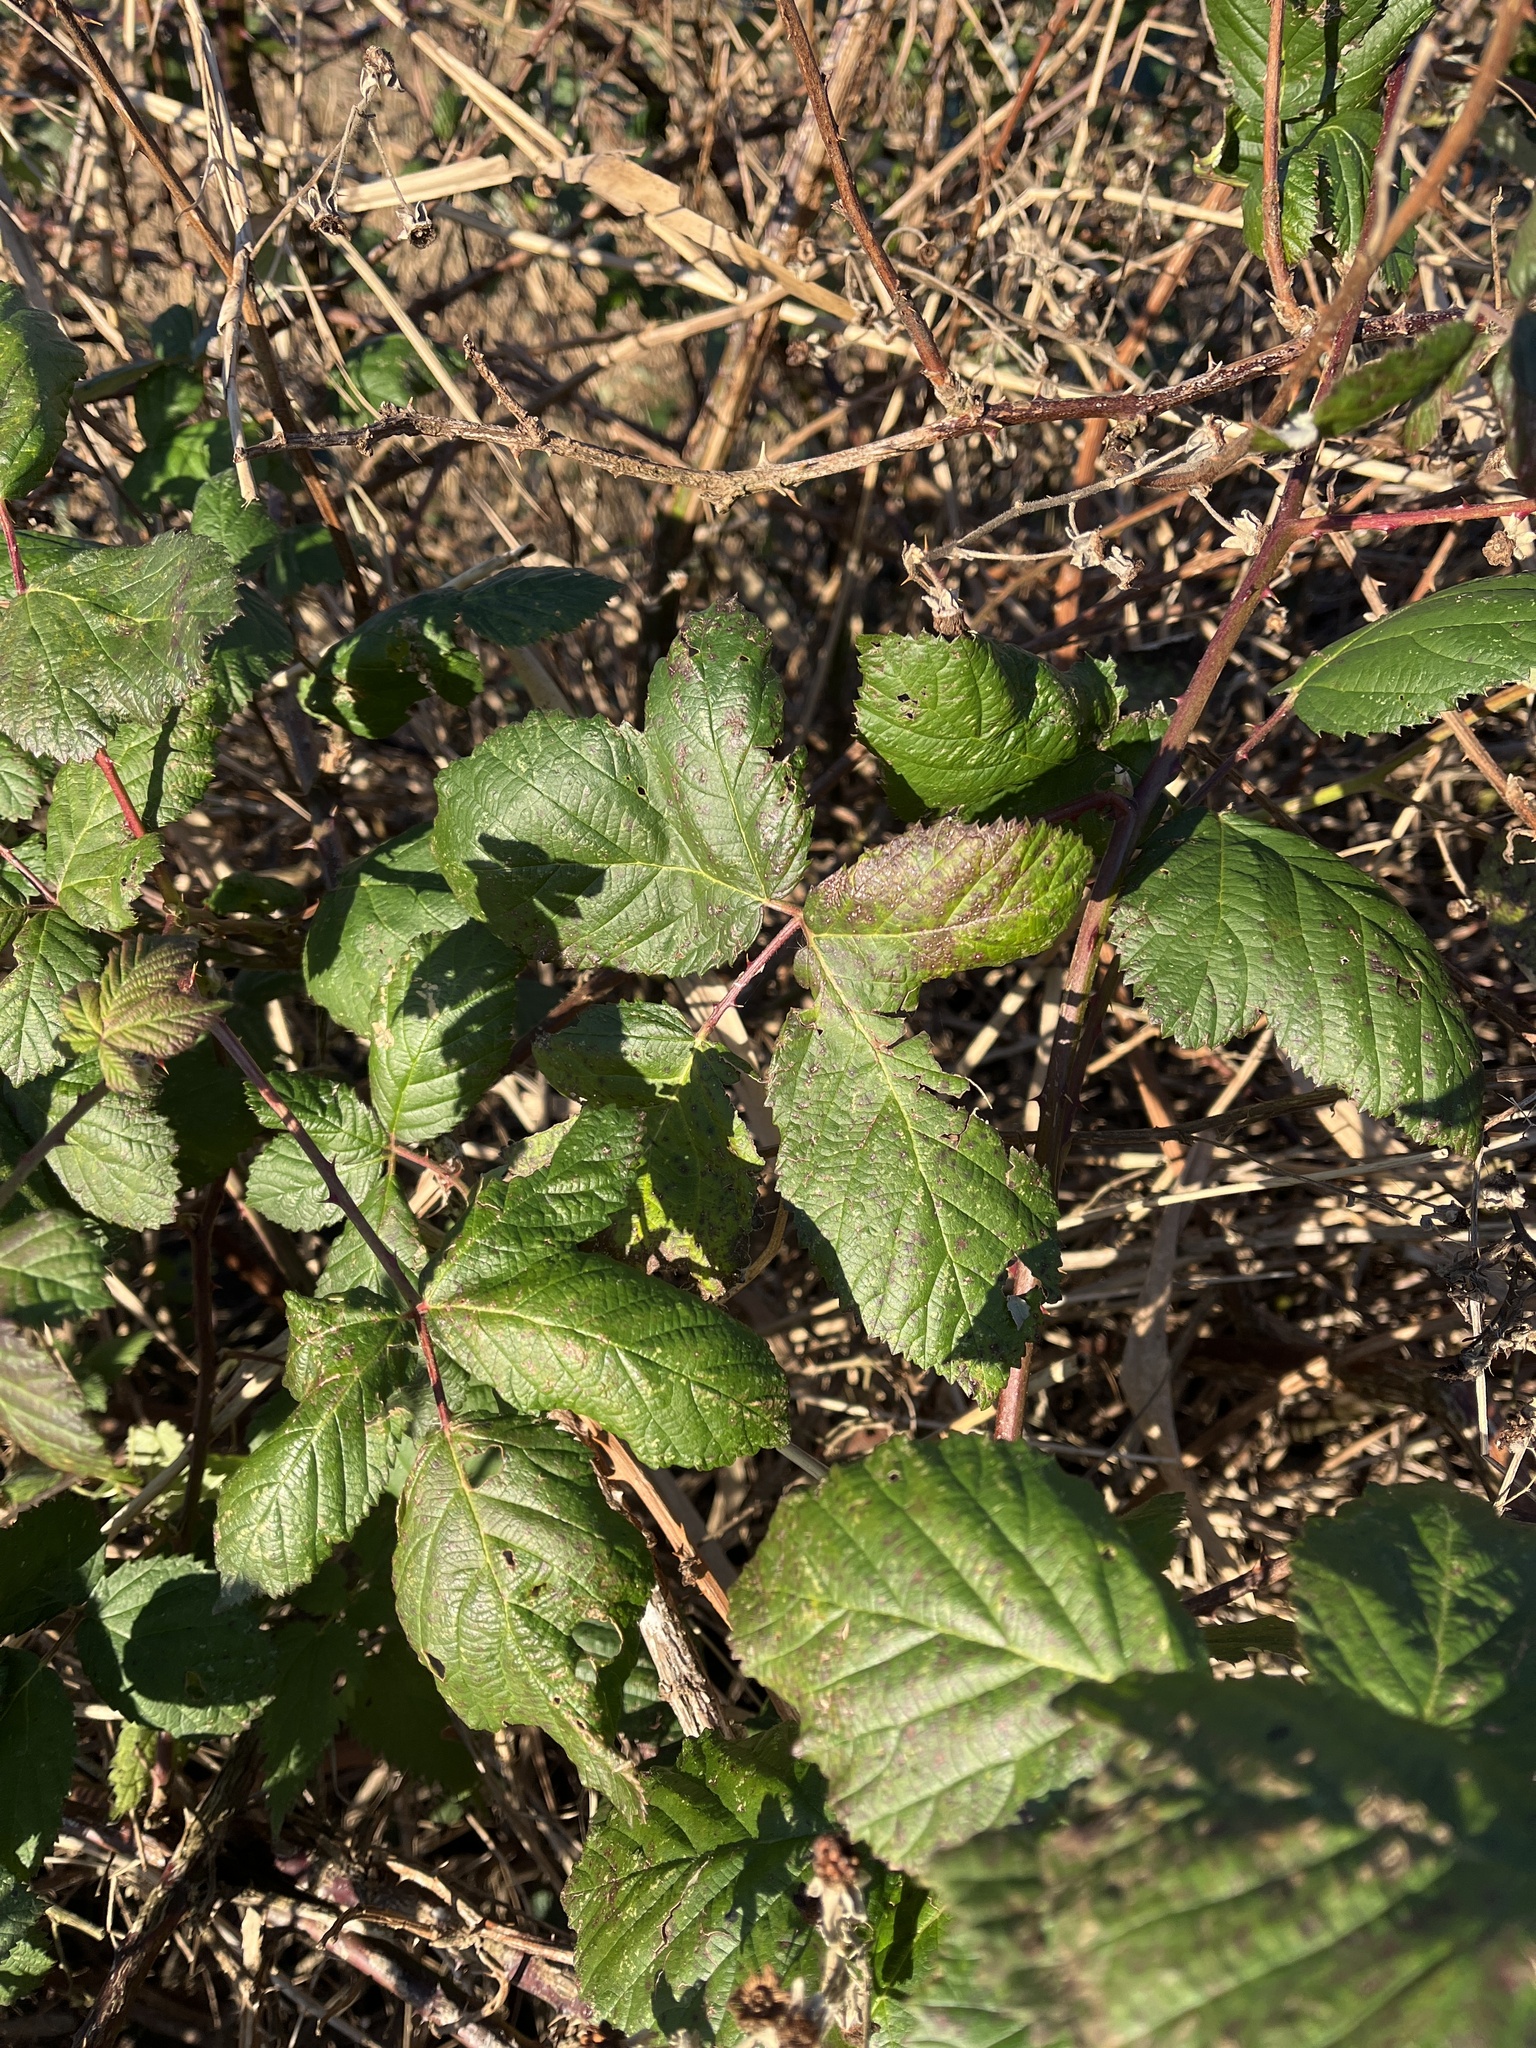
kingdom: Plantae
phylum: Tracheophyta
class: Magnoliopsida
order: Rosales
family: Rosaceae
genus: Rubus
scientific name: Rubus armeniacus
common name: Himalayan blackberry
